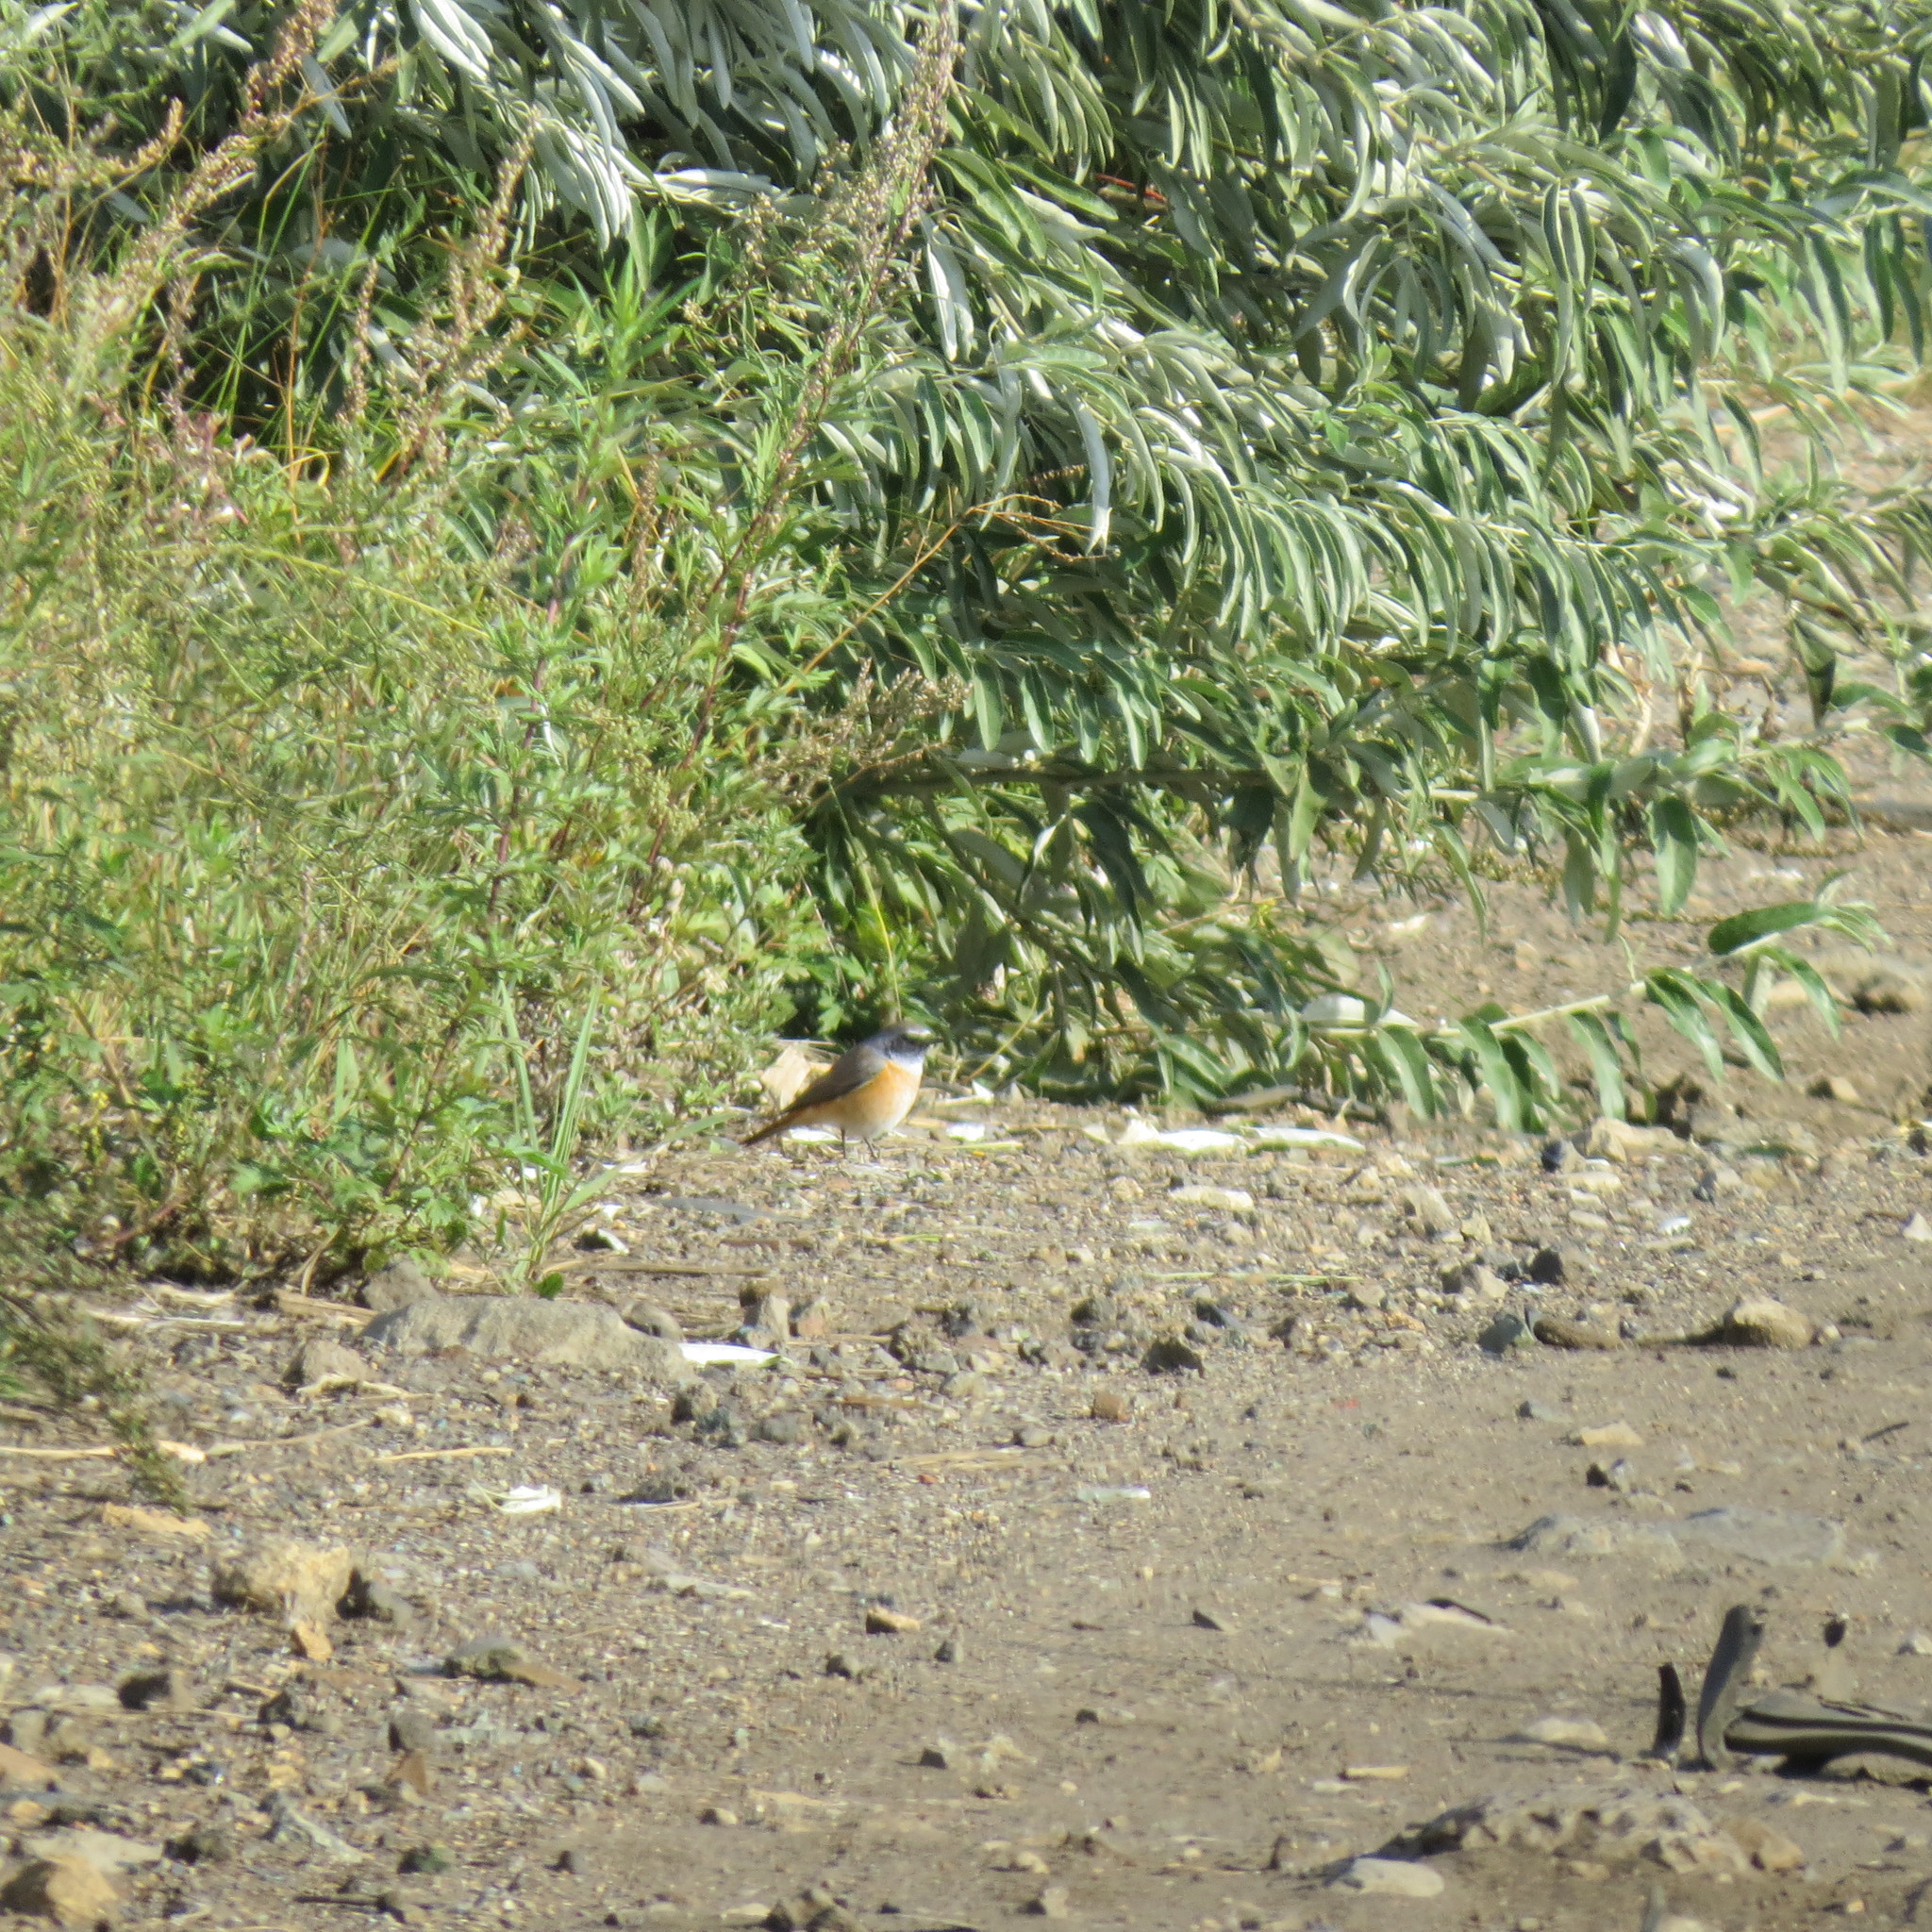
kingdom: Animalia
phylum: Chordata
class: Aves
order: Passeriformes
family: Muscicapidae
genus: Phoenicurus
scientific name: Phoenicurus phoenicurus
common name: Common redstart
